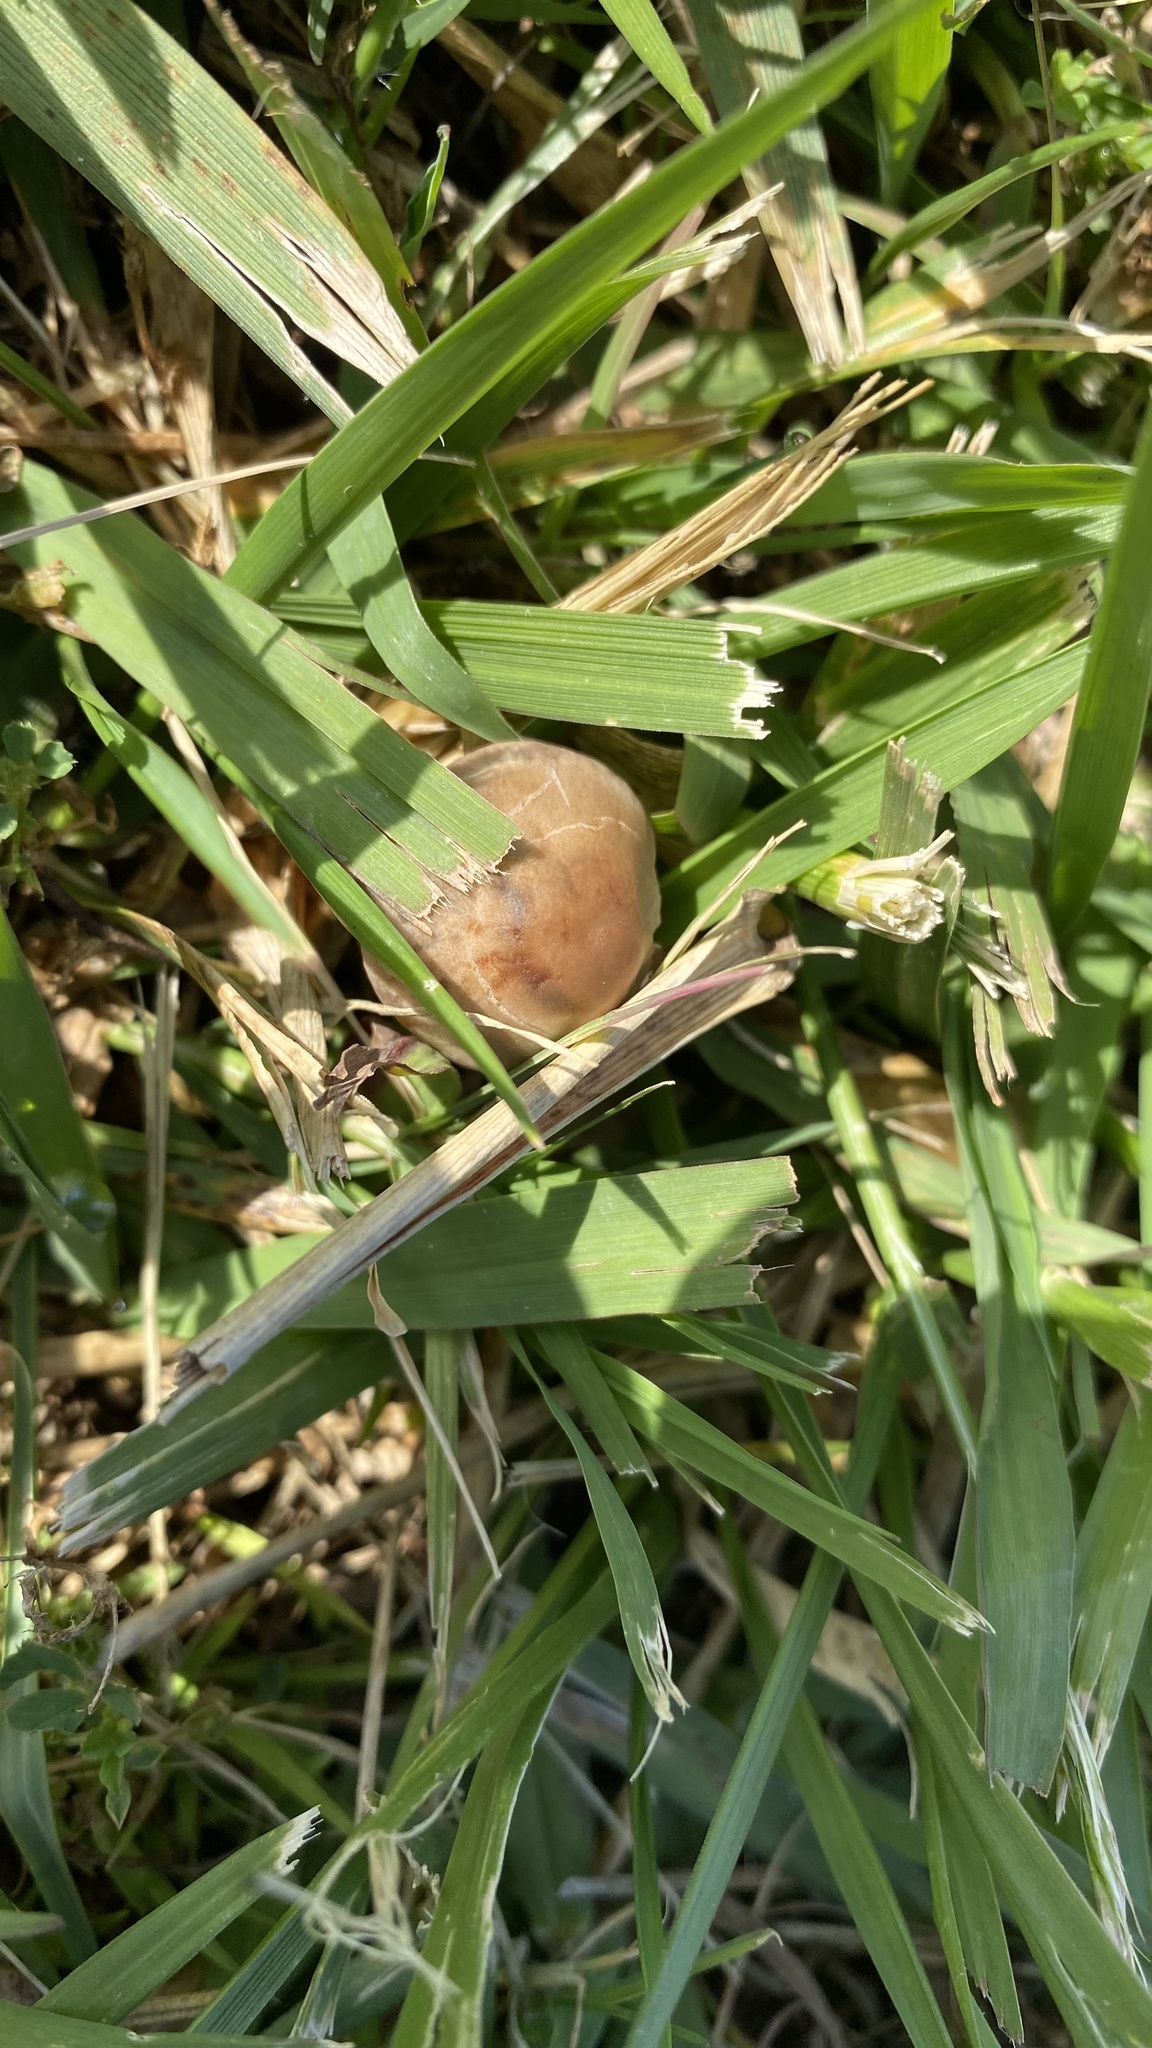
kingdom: Fungi
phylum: Basidiomycota
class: Agaricomycetes
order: Agaricales
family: Bolbitiaceae
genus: Panaeolus
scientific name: Panaeolus subbalteatus
